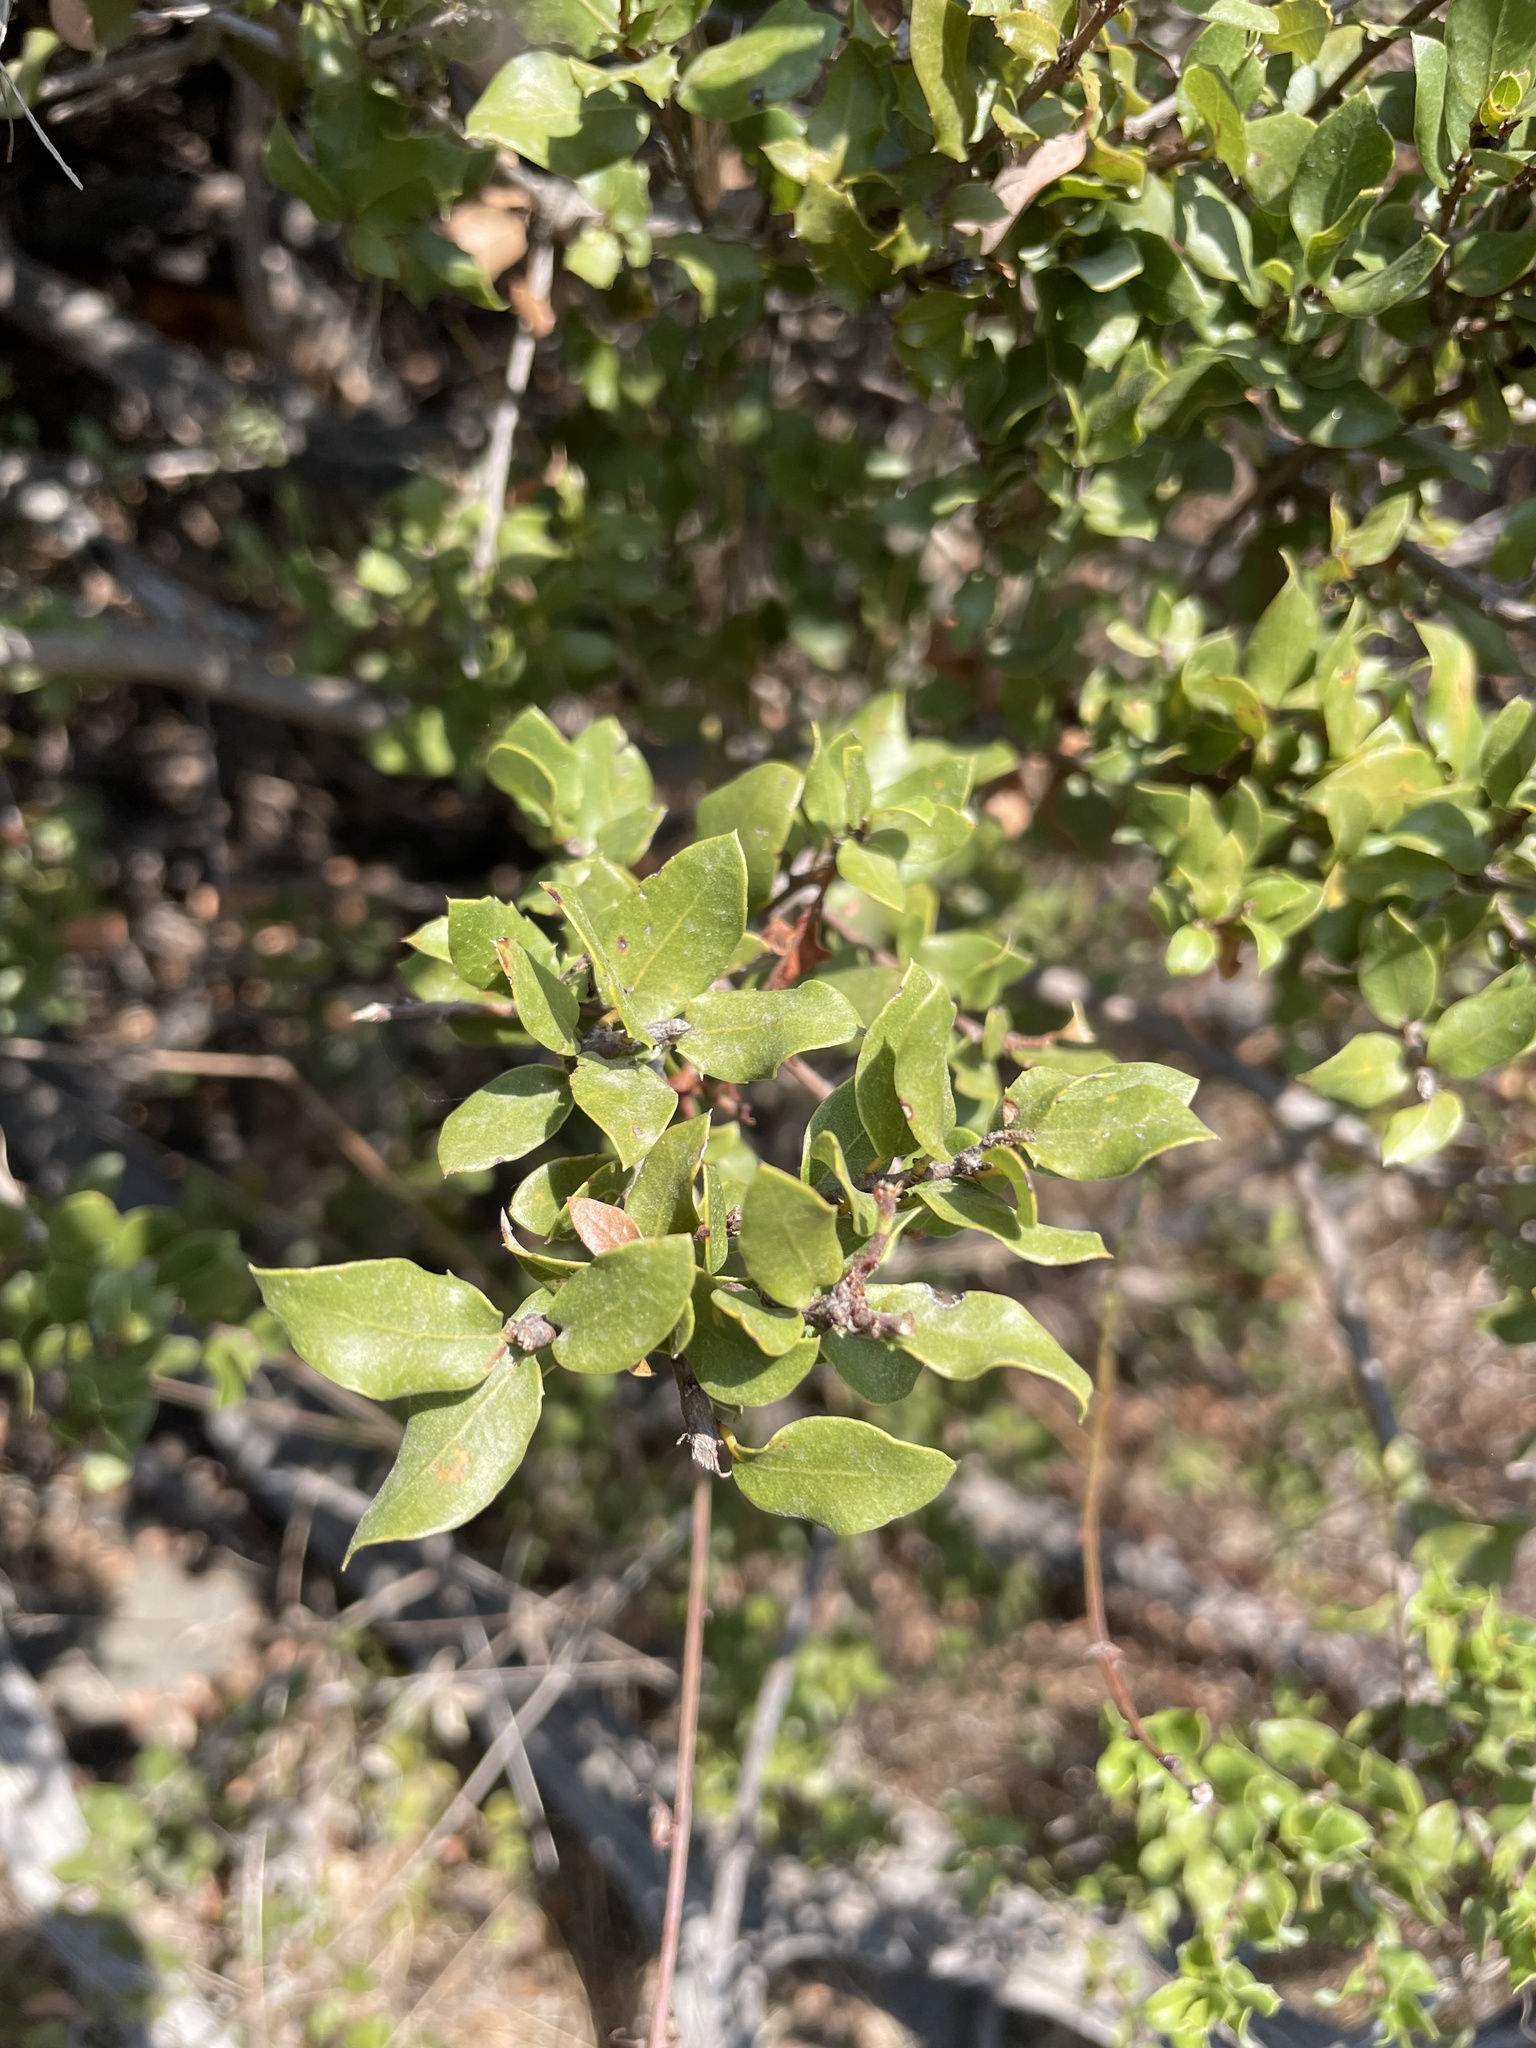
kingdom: Plantae
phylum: Tracheophyta
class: Magnoliopsida
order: Fagales
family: Fagaceae
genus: Quercus
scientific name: Quercus cedrosensis
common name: Cedros island oak
